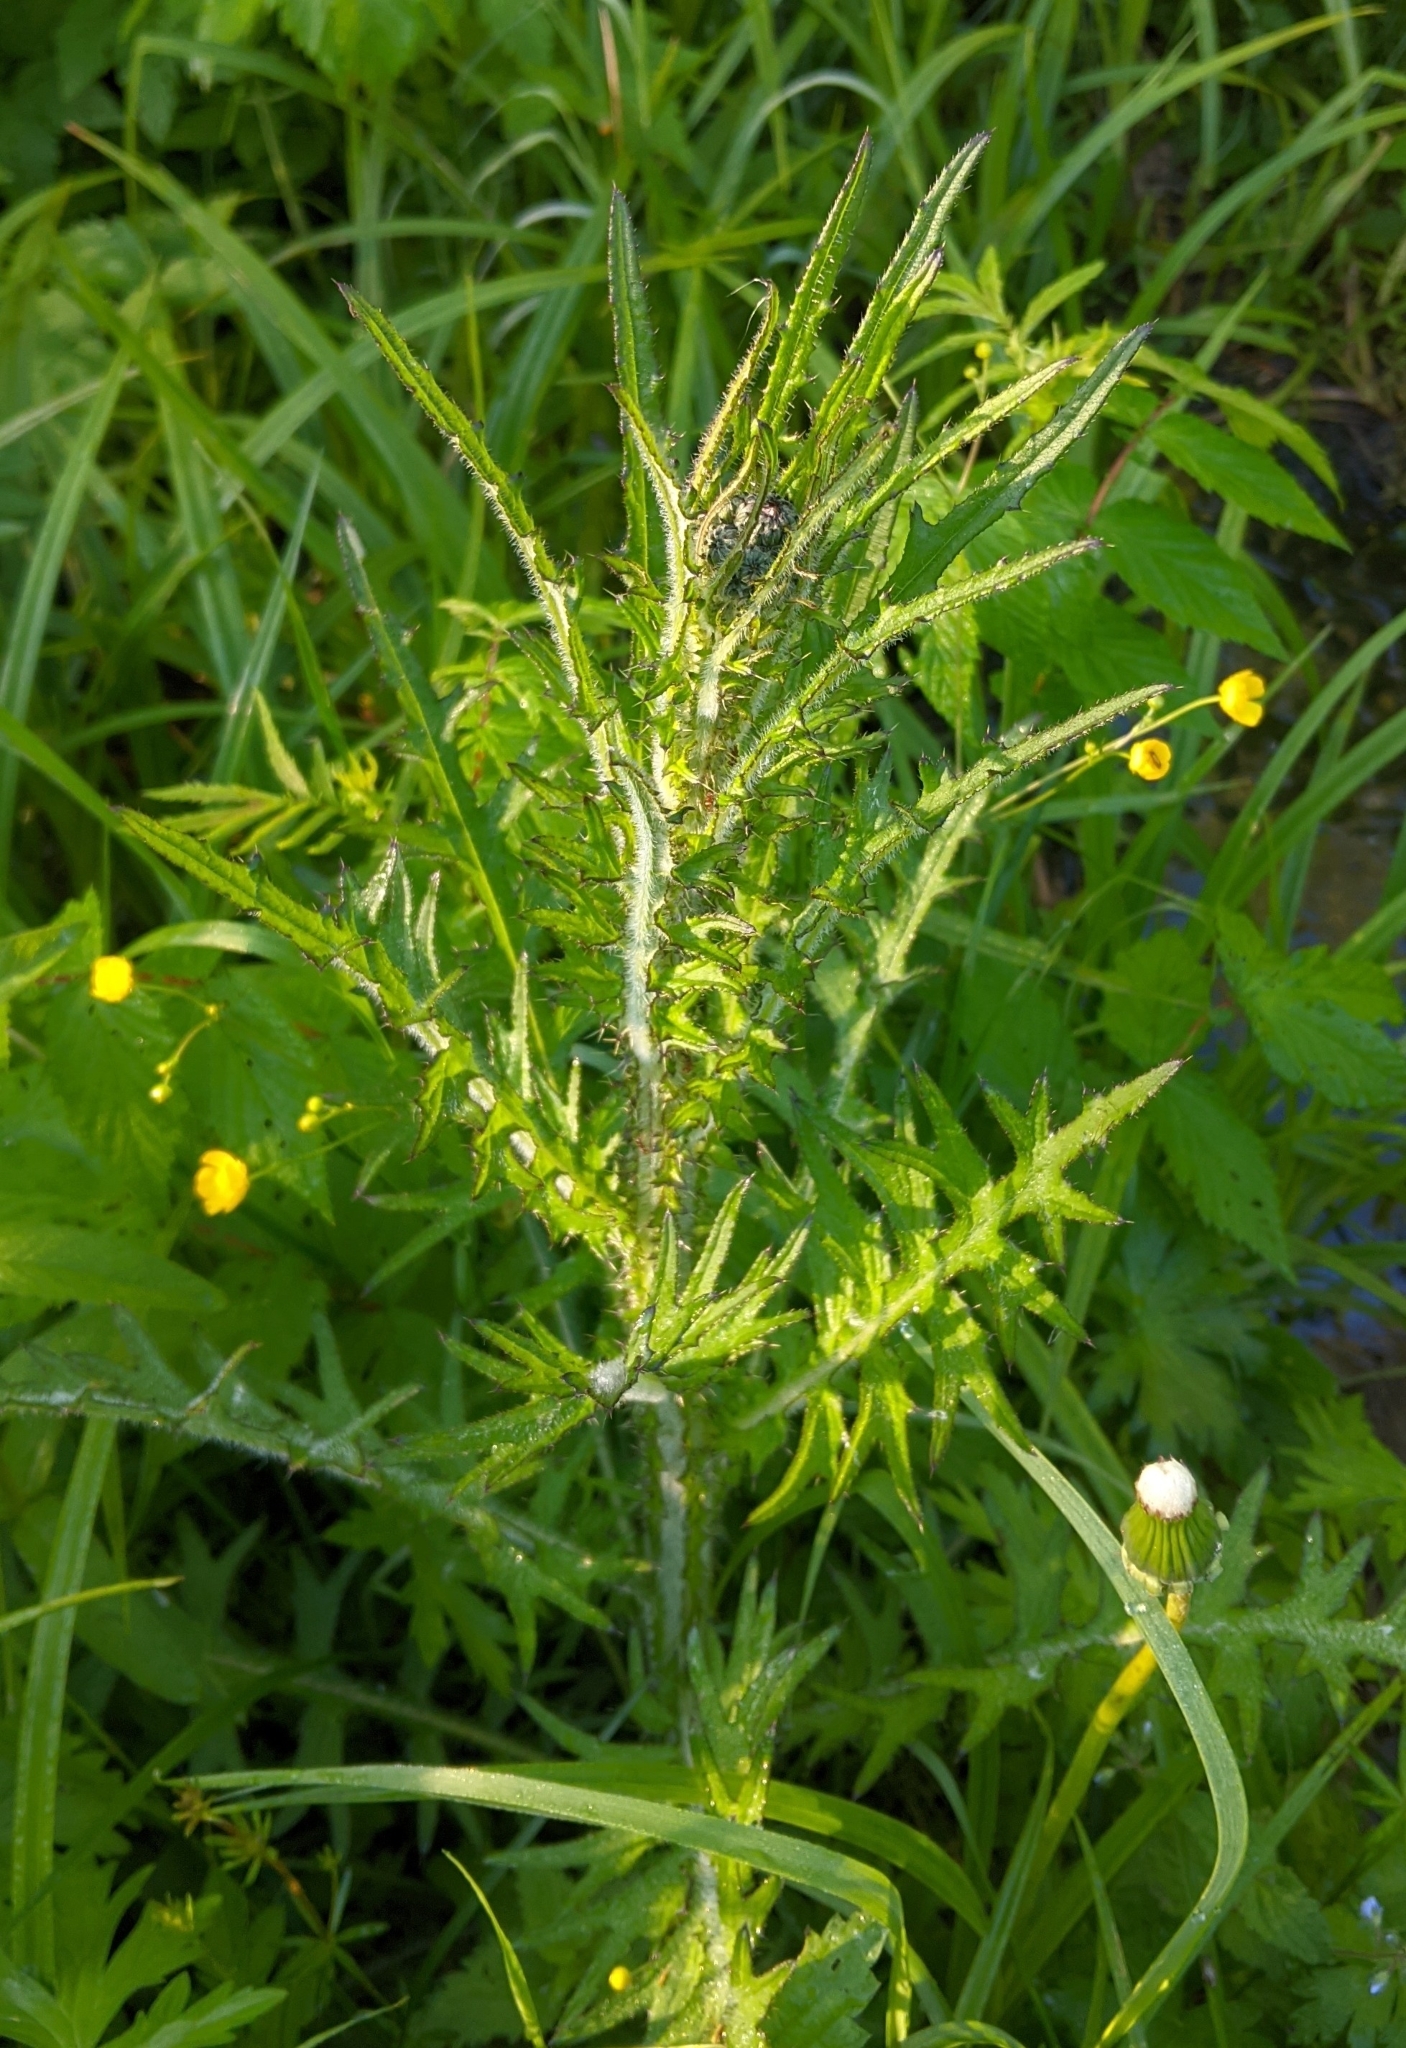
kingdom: Plantae
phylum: Tracheophyta
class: Magnoliopsida
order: Asterales
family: Asteraceae
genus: Cirsium
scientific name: Cirsium palustre
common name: Marsh thistle
